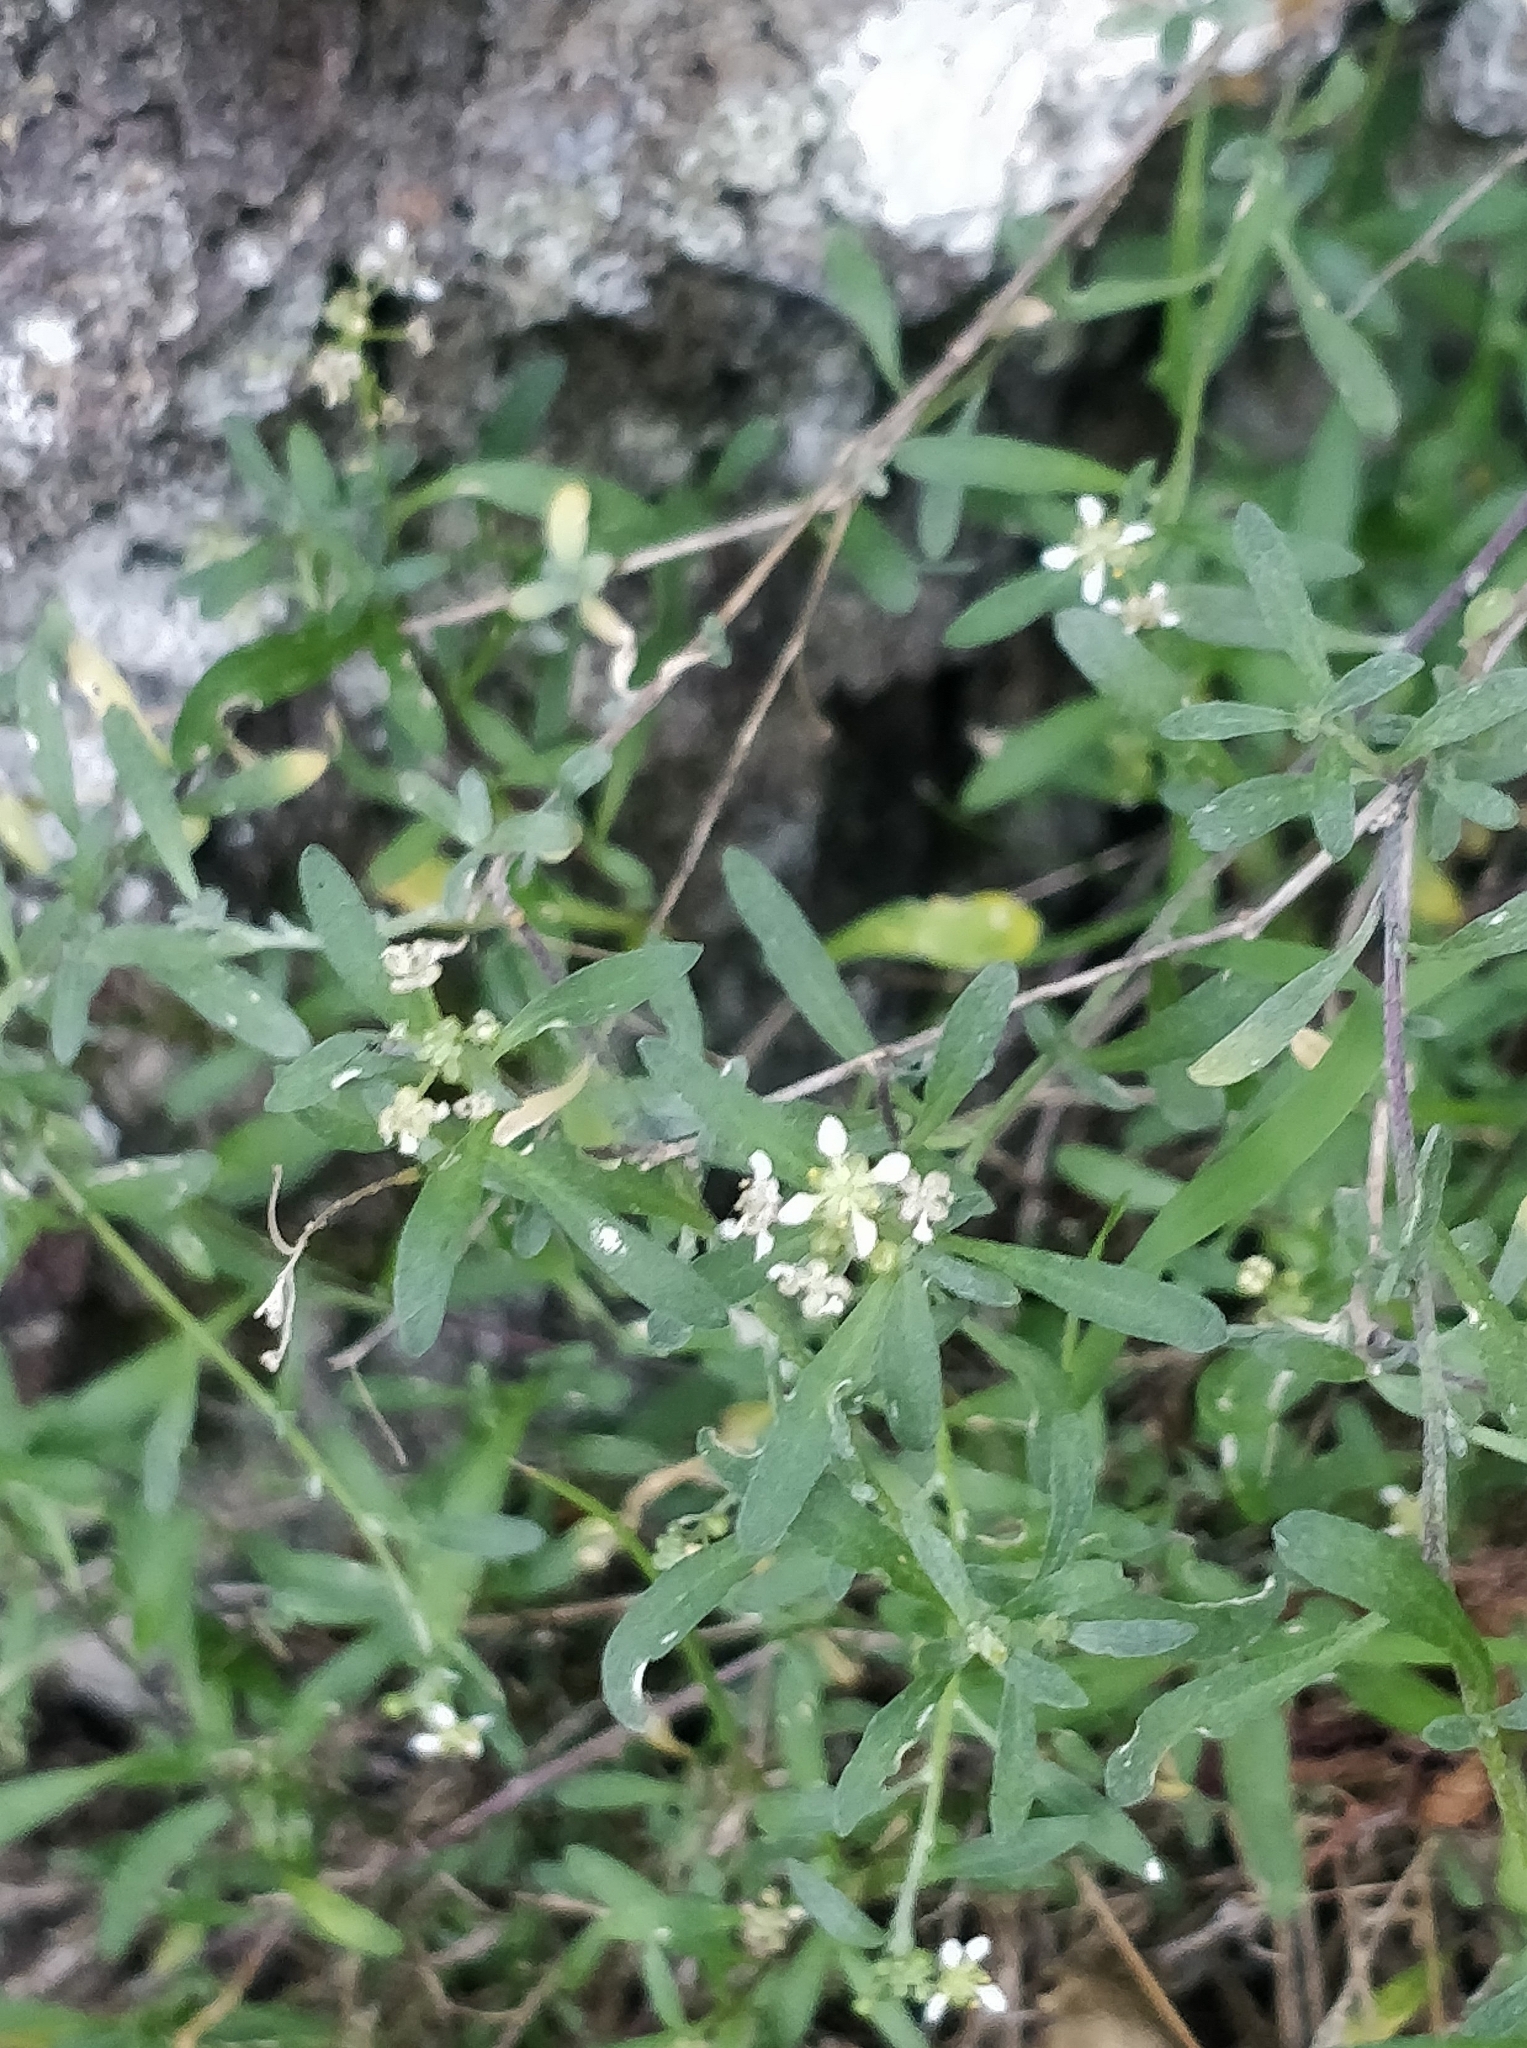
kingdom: Plantae
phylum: Tracheophyta
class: Magnoliopsida
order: Brassicales
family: Brassicaceae
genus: Lobularia
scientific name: Lobularia canariensis
